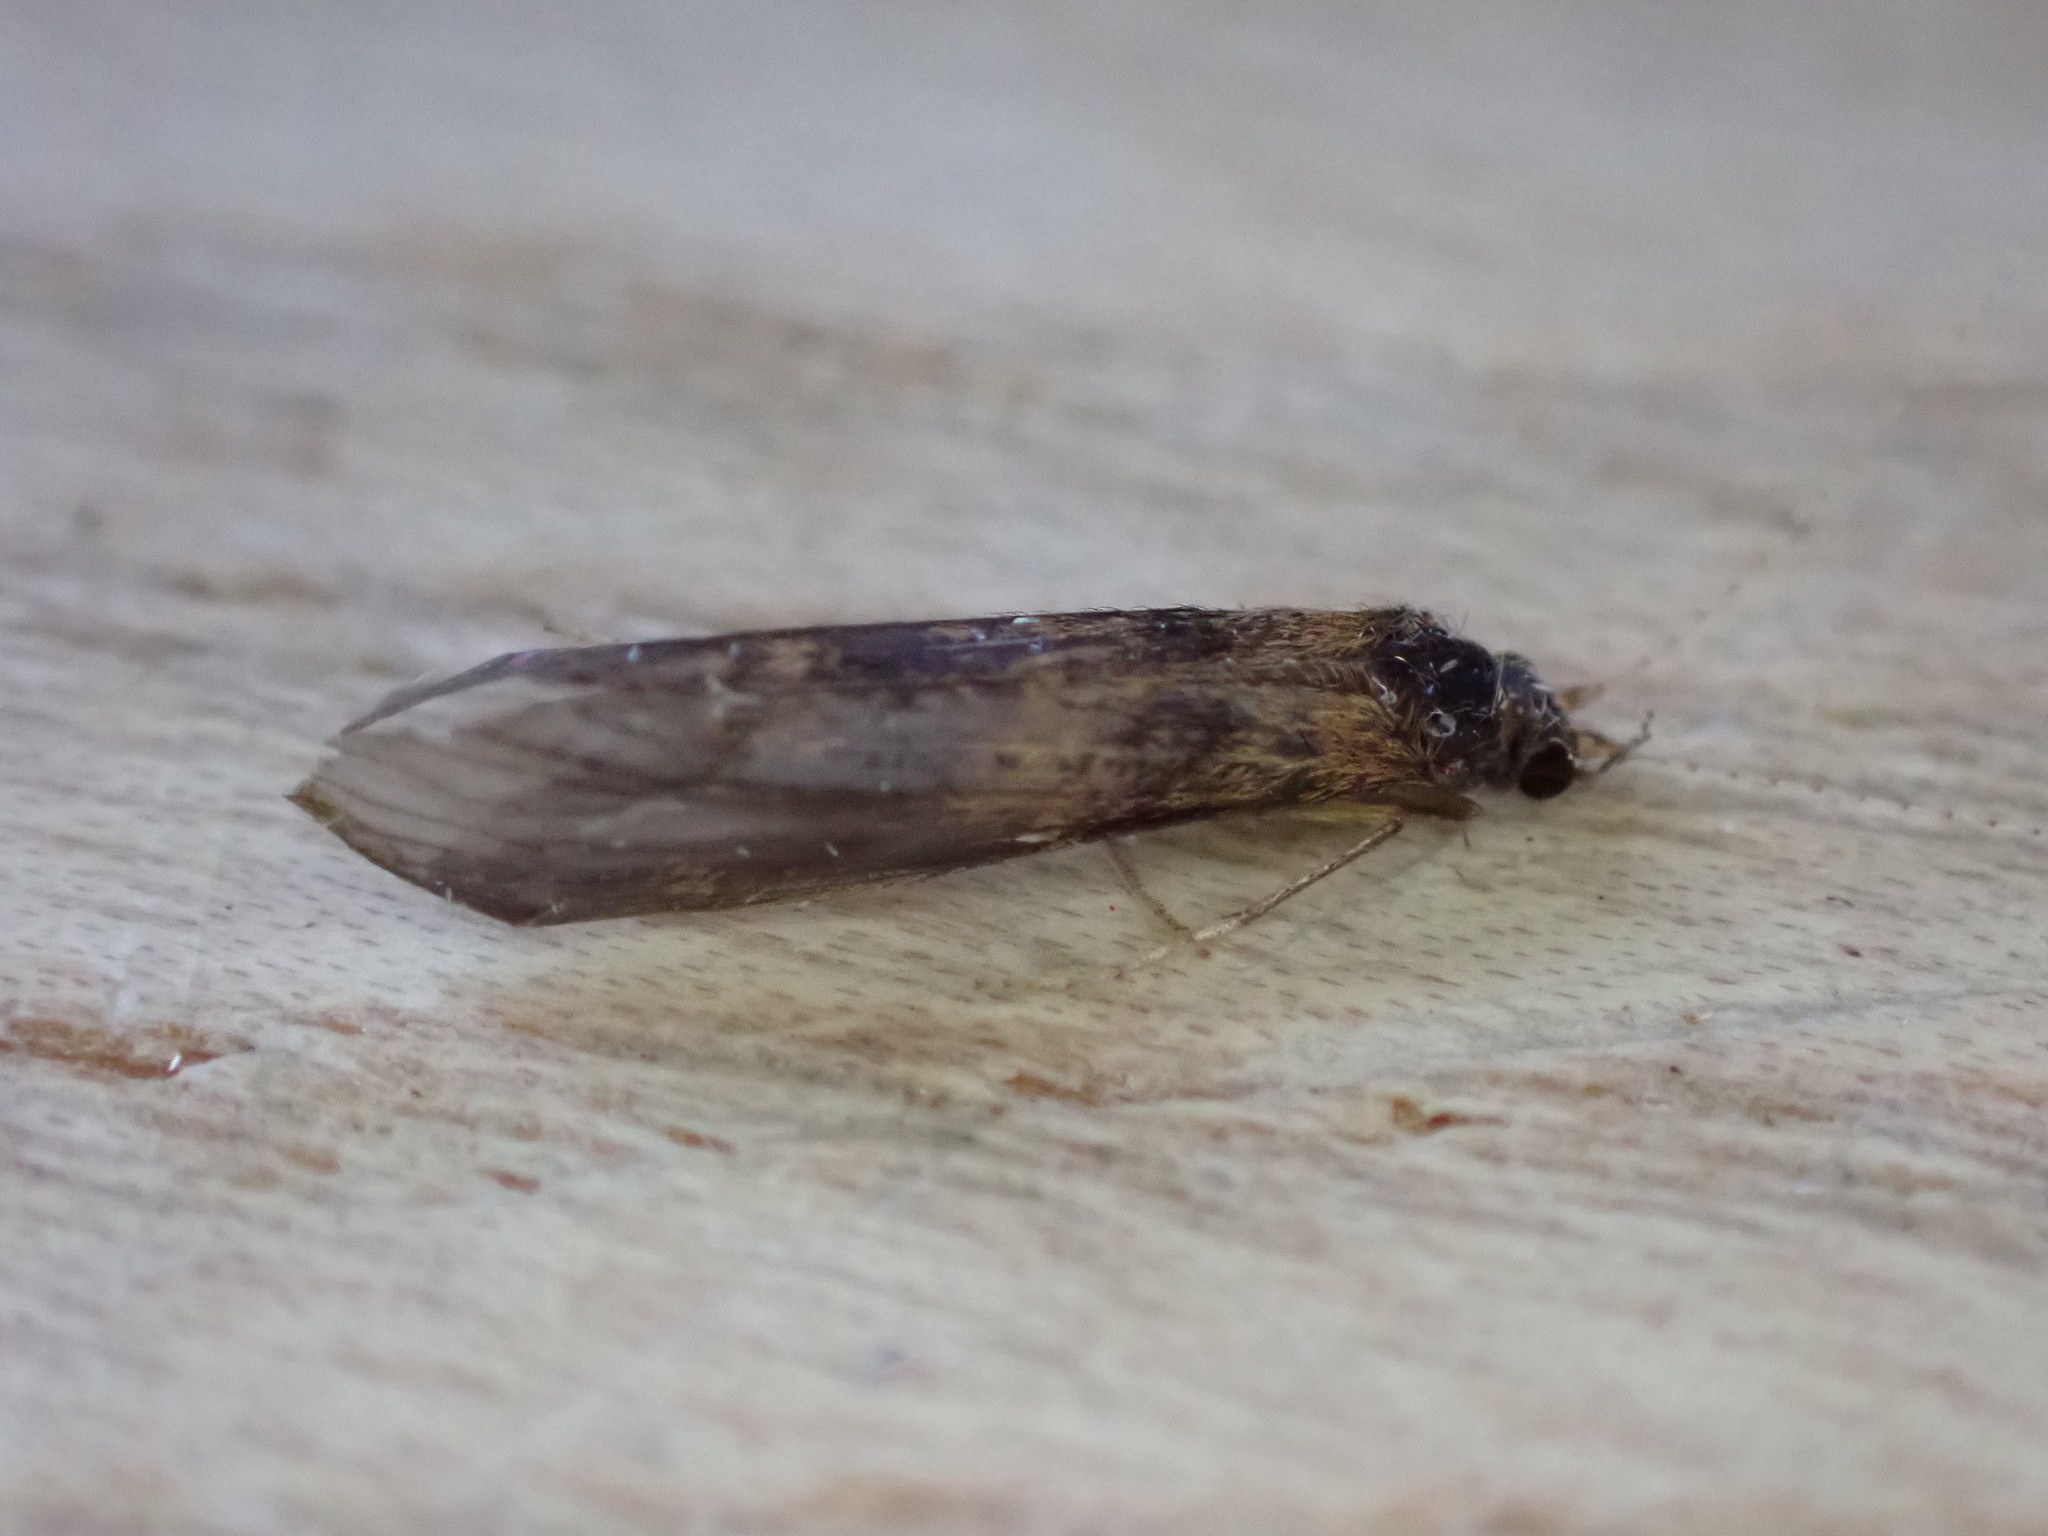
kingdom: Animalia
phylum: Arthropoda
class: Insecta
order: Trichoptera
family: Leptoceridae
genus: Mystacides
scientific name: Mystacides longicornis
